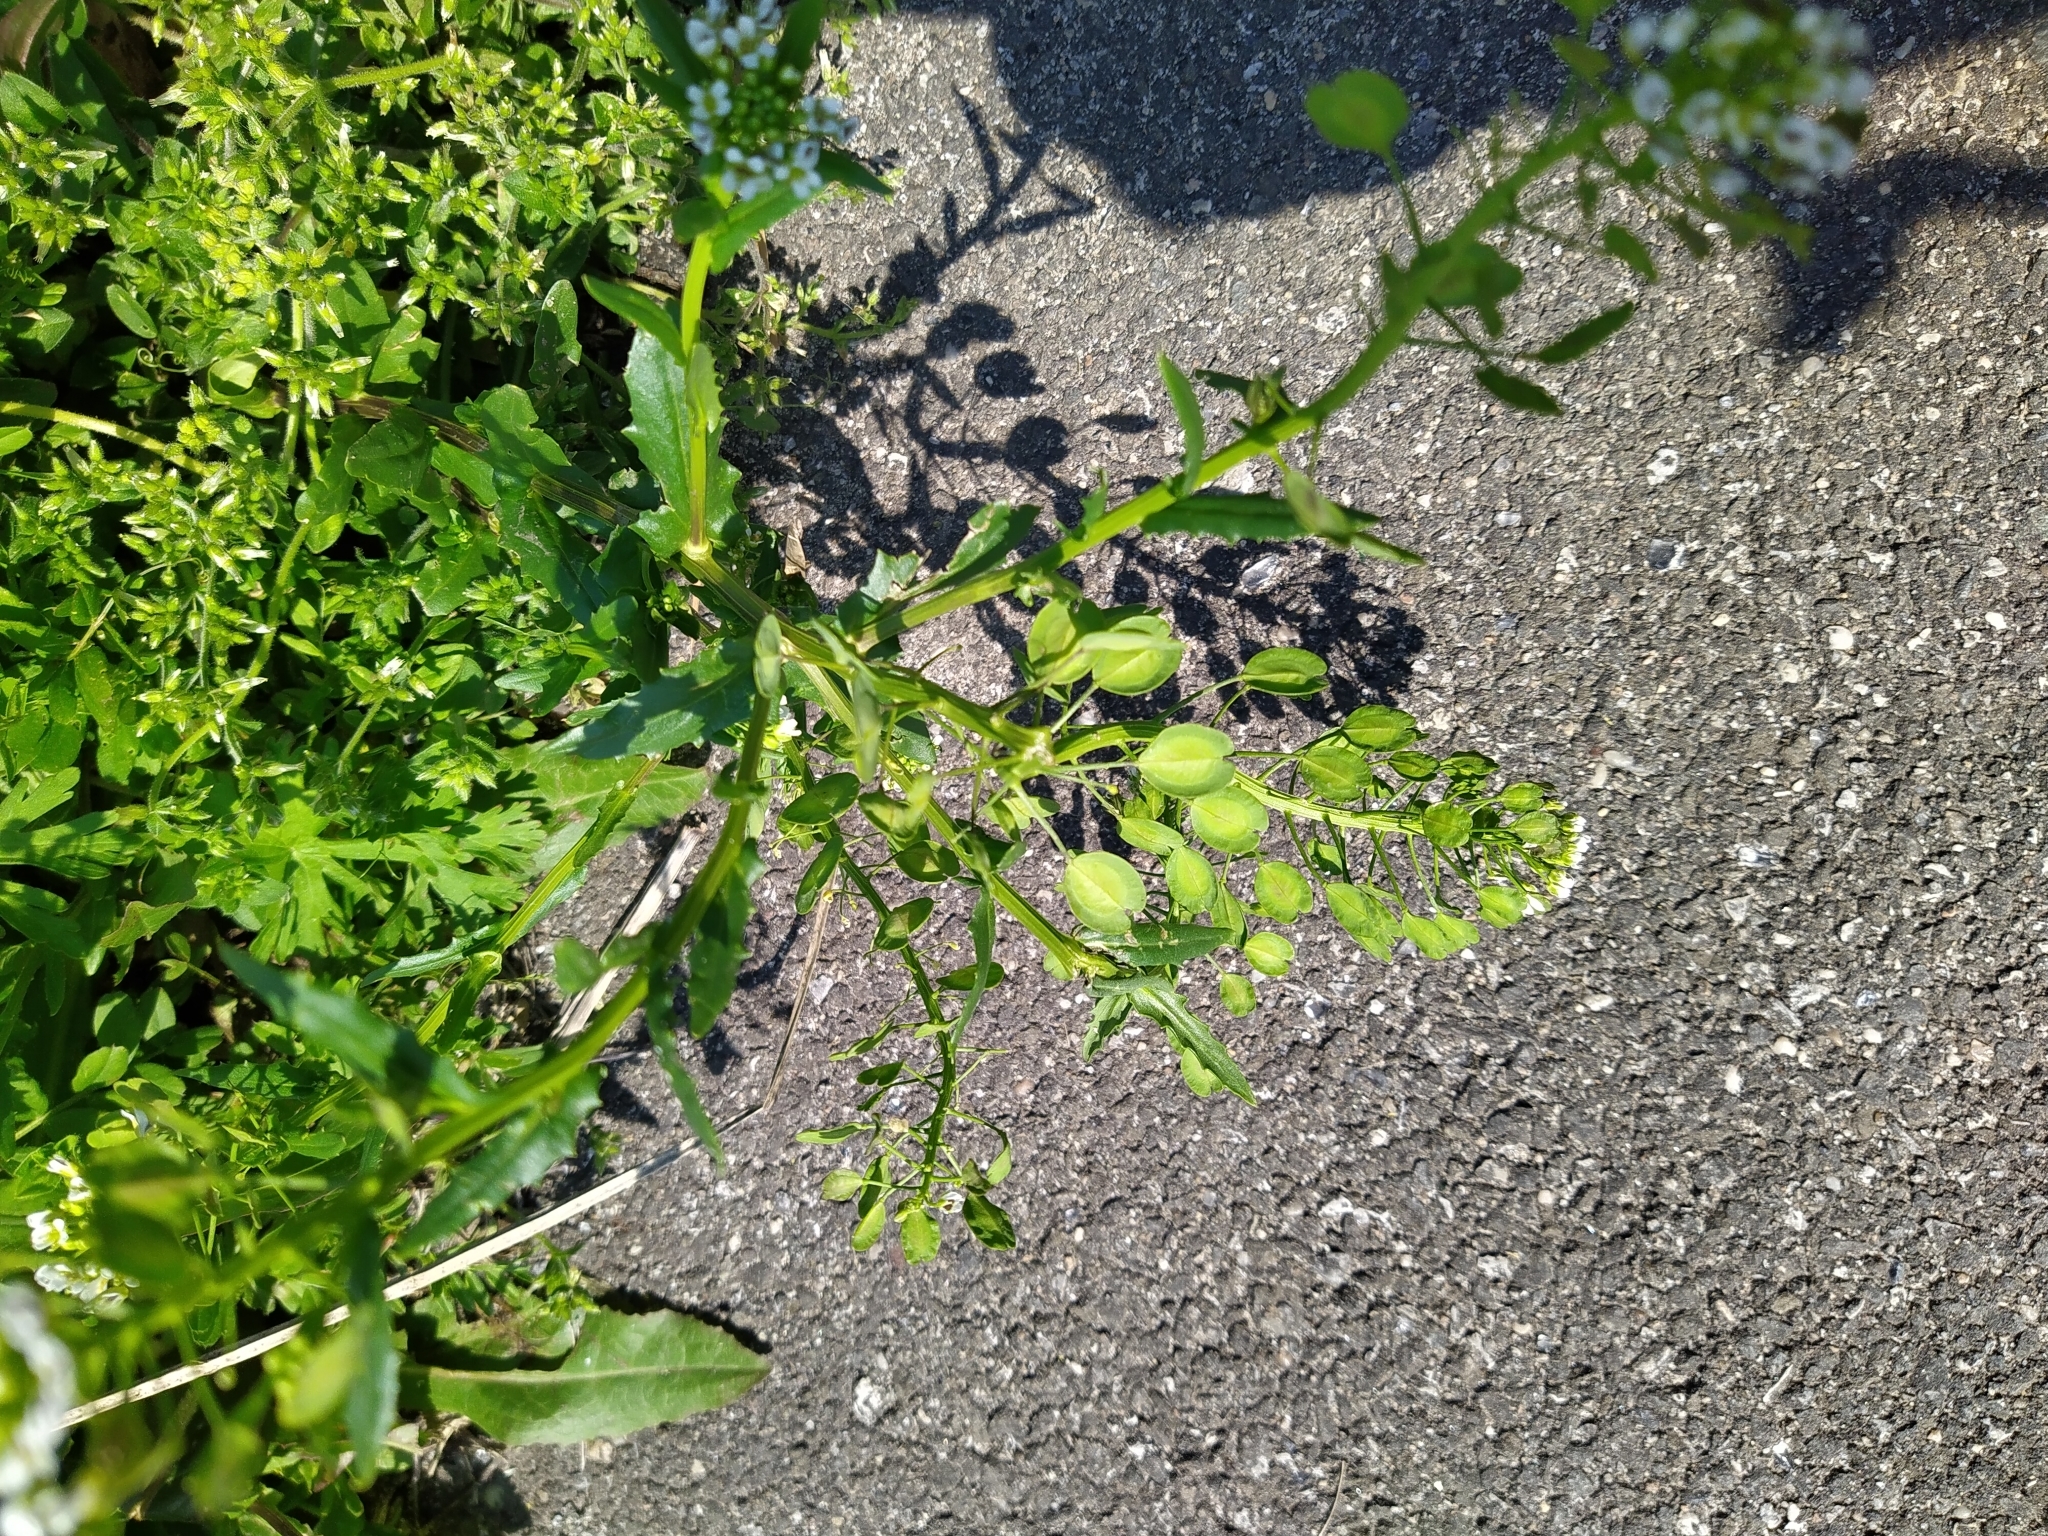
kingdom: Plantae
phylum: Tracheophyta
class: Magnoliopsida
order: Brassicales
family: Brassicaceae
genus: Thlaspi
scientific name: Thlaspi arvense
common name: Field pennycress
